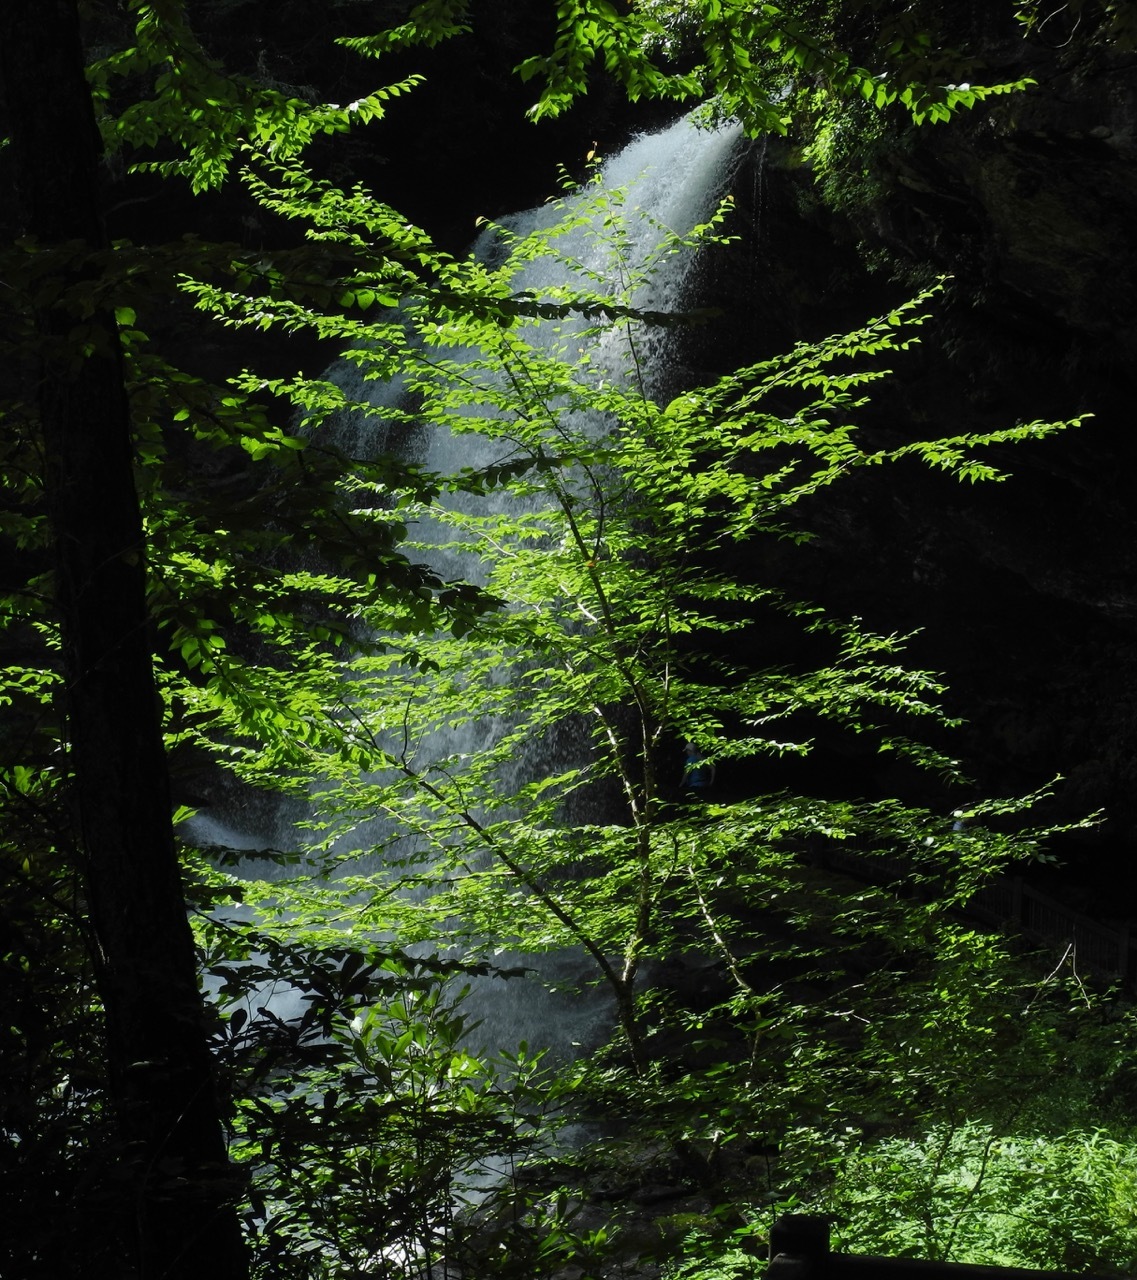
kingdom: Plantae
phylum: Tracheophyta
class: Magnoliopsida
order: Fagales
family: Betulaceae
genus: Betula
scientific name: Betula lenta
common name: Black birch
